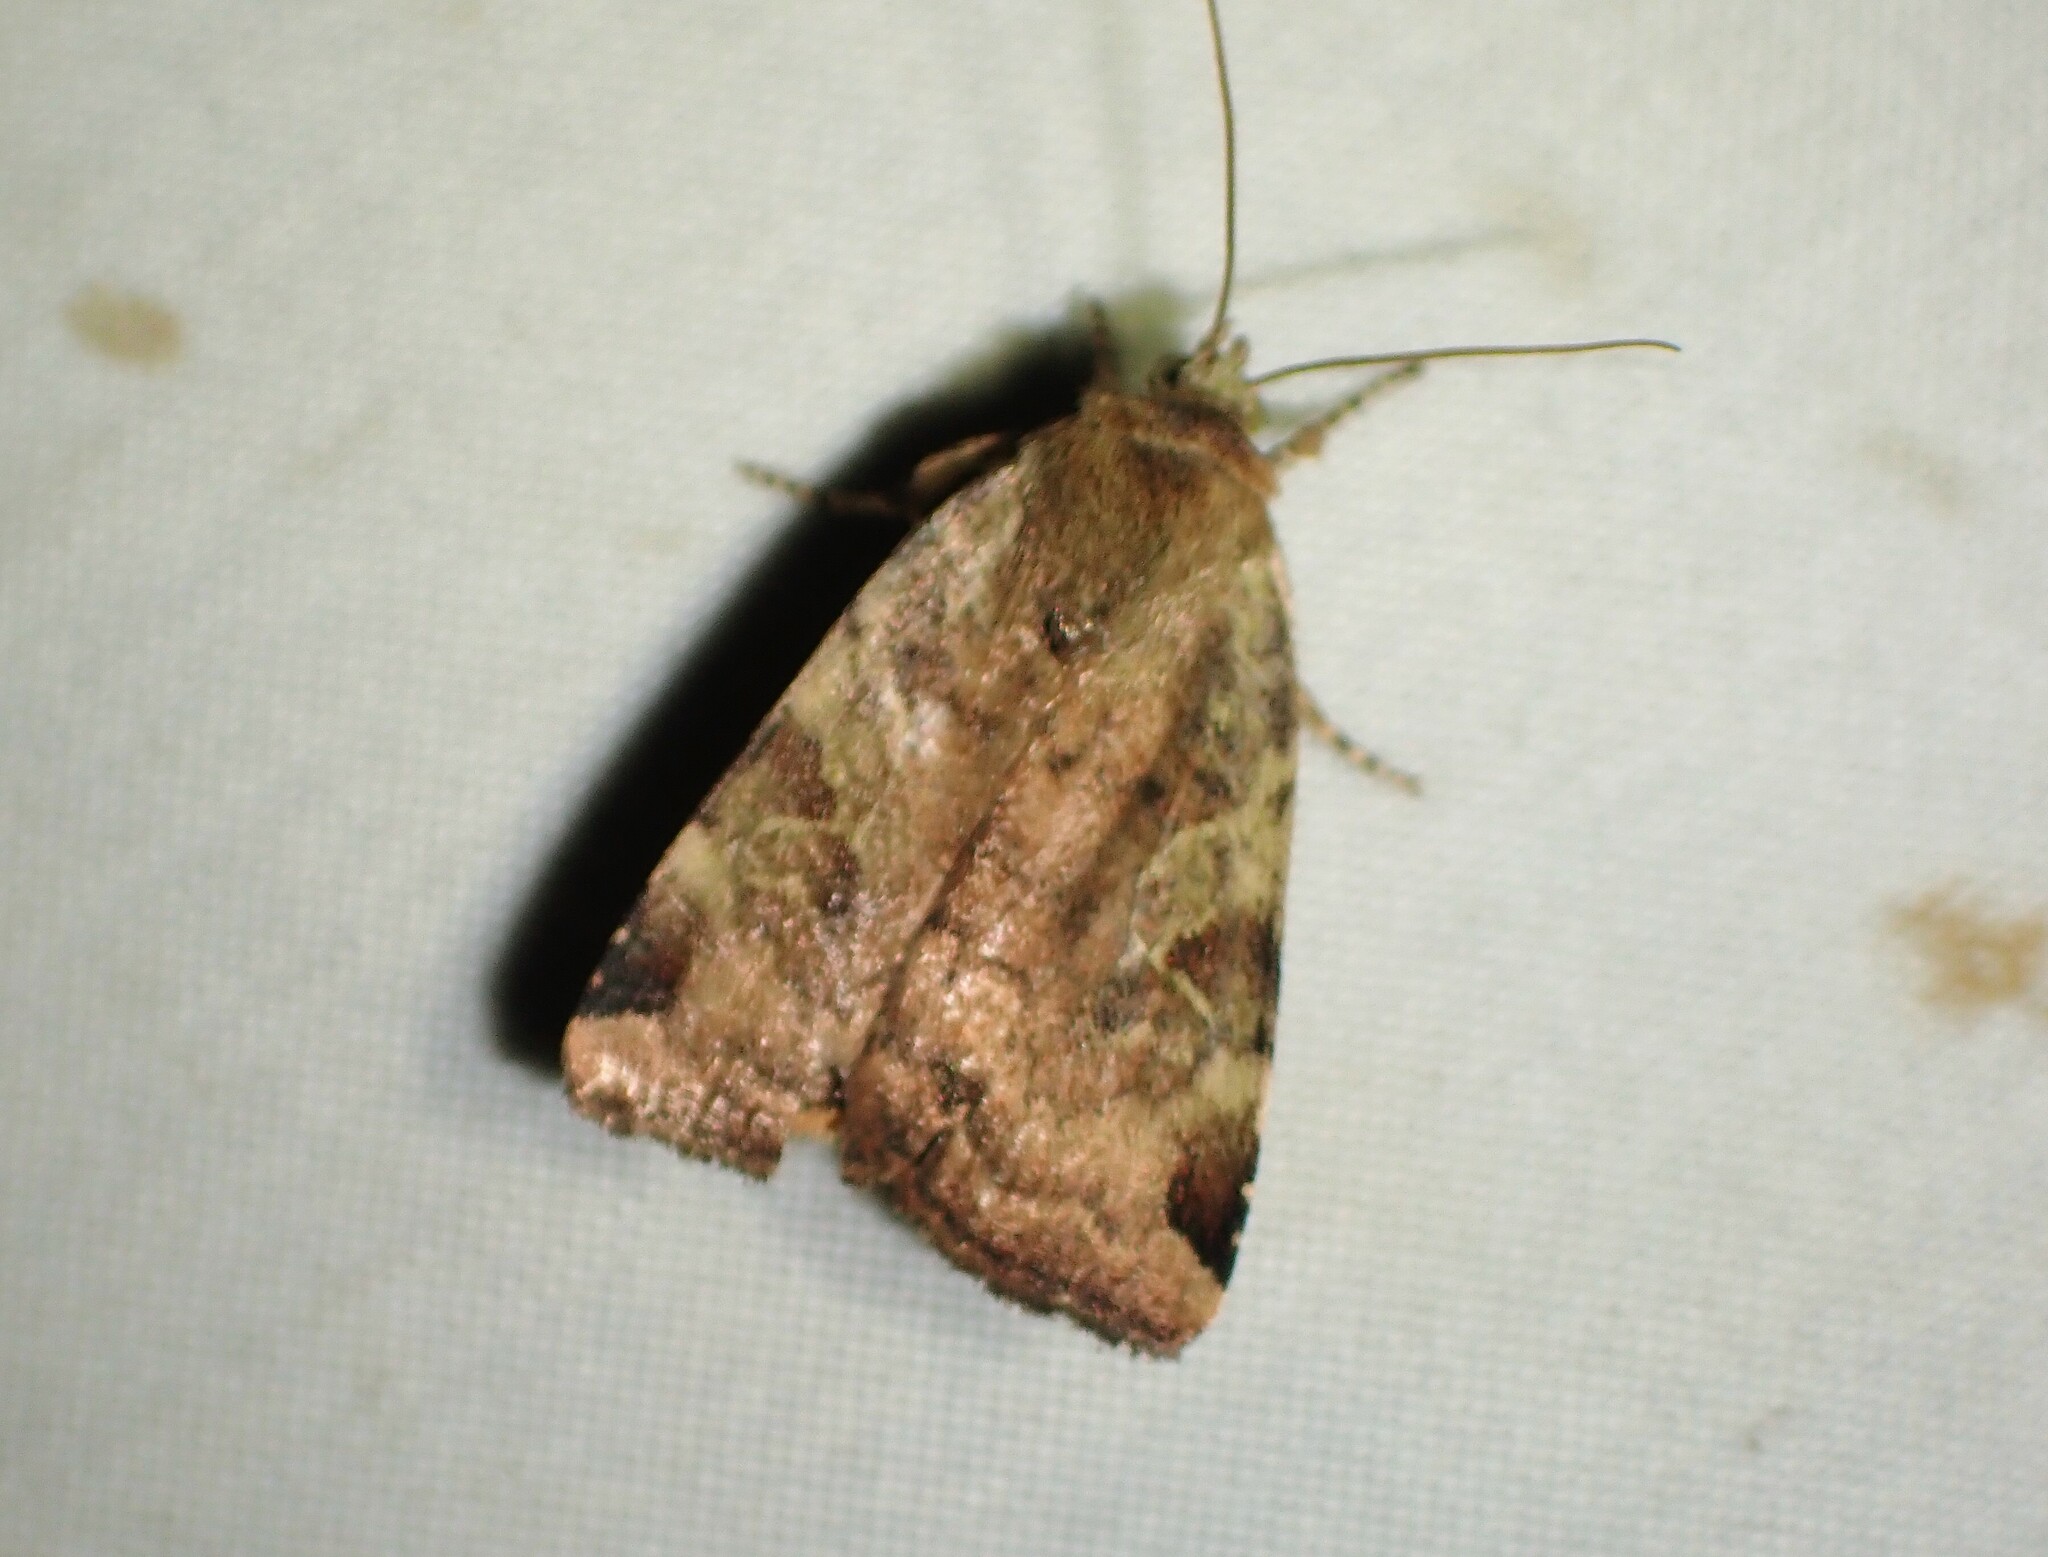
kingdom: Animalia
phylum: Arthropoda
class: Insecta
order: Lepidoptera
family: Noctuidae
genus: Cryptocala
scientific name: Cryptocala acadiensis
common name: Catocaline dart
